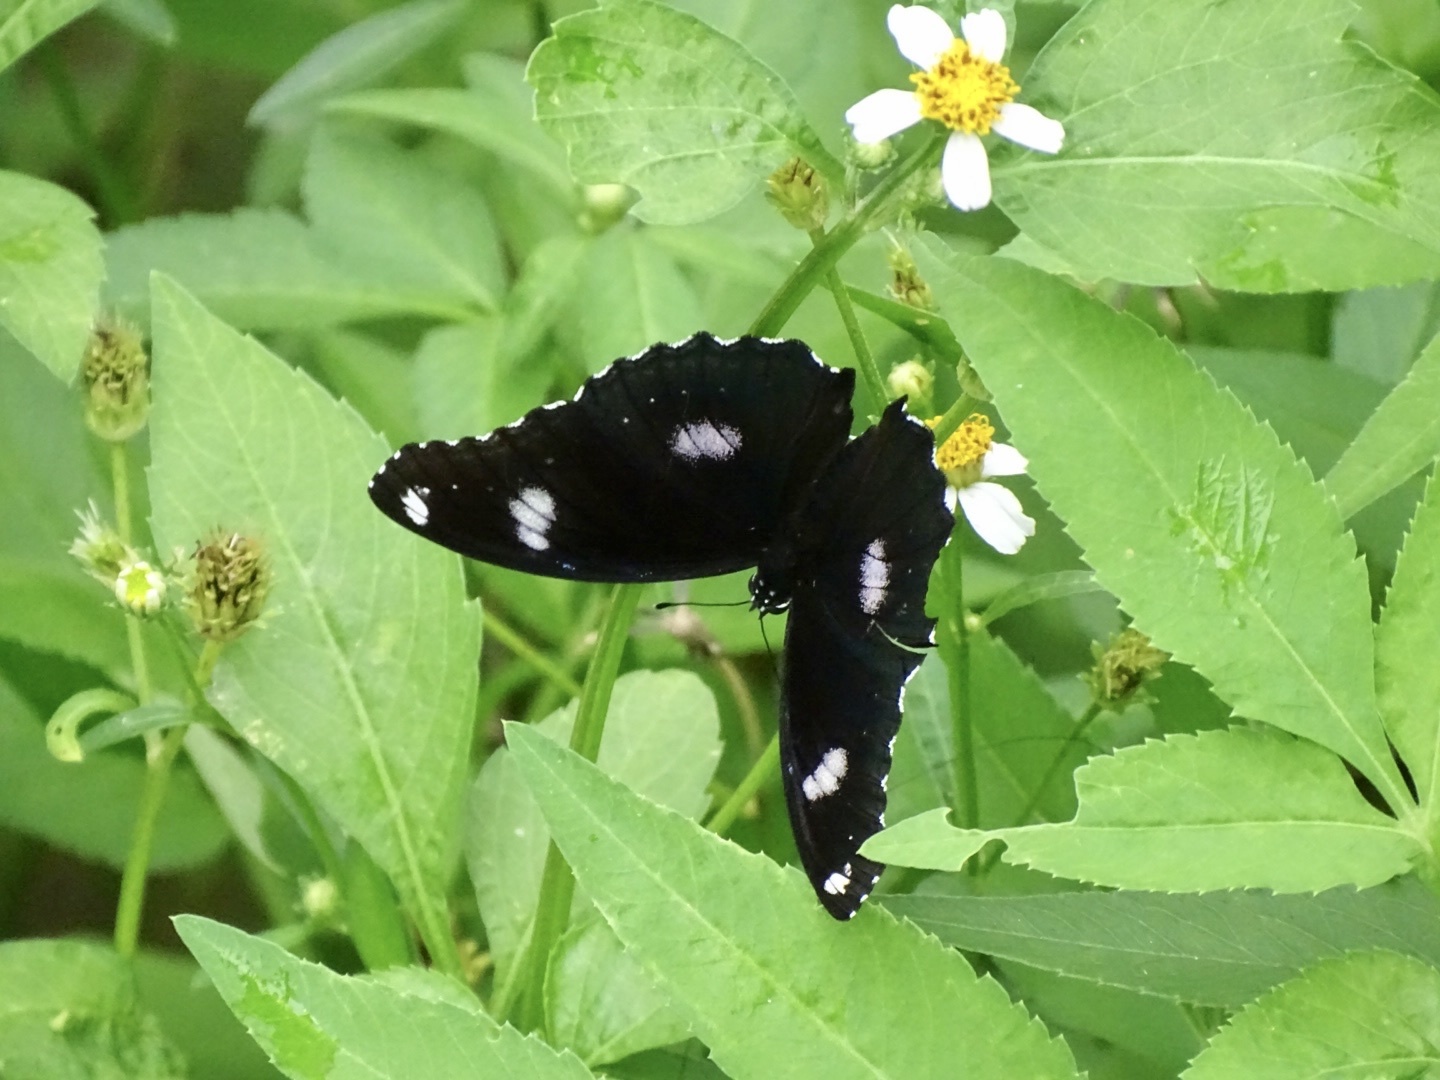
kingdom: Animalia
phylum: Arthropoda
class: Insecta
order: Lepidoptera
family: Nymphalidae
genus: Hypolimnas
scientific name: Hypolimnas bolina
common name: Great eggfly
